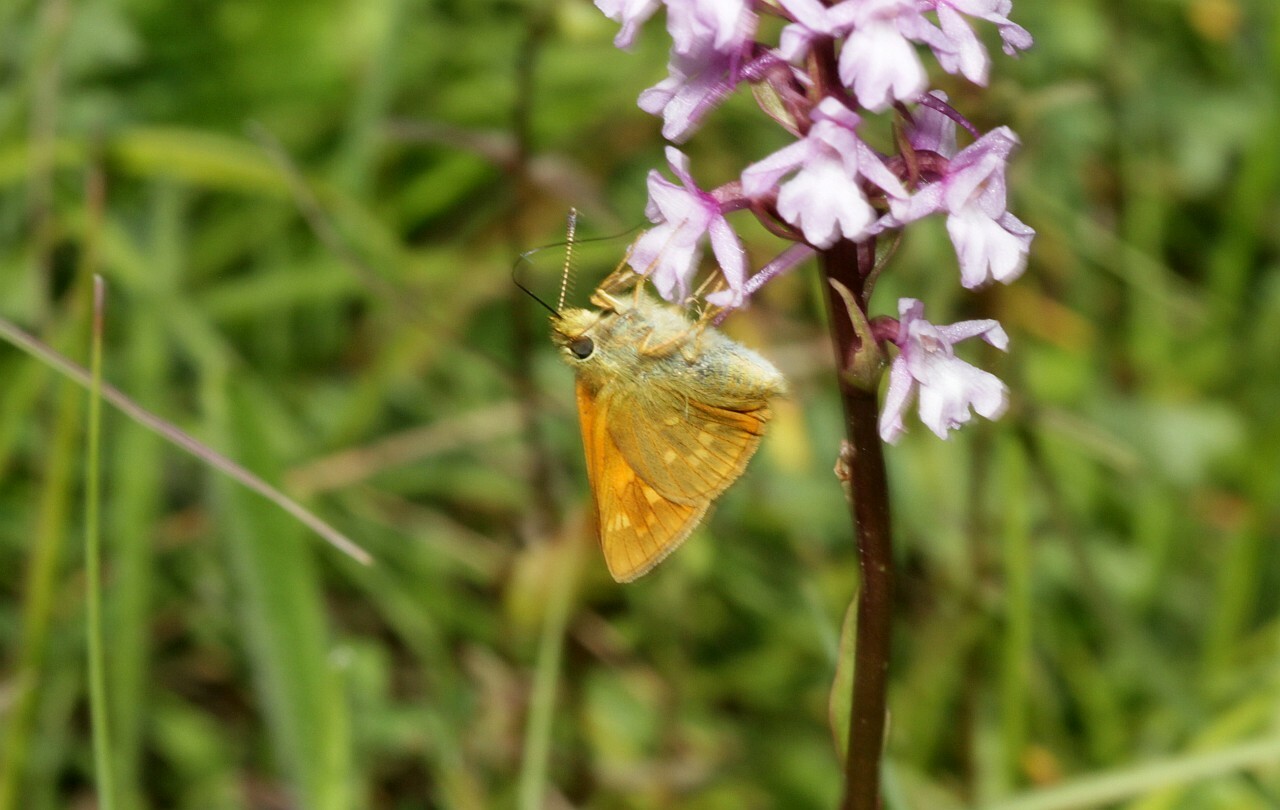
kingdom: Animalia
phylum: Arthropoda
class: Insecta
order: Lepidoptera
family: Hesperiidae
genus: Ochlodes
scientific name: Ochlodes venata
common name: Large skipper
